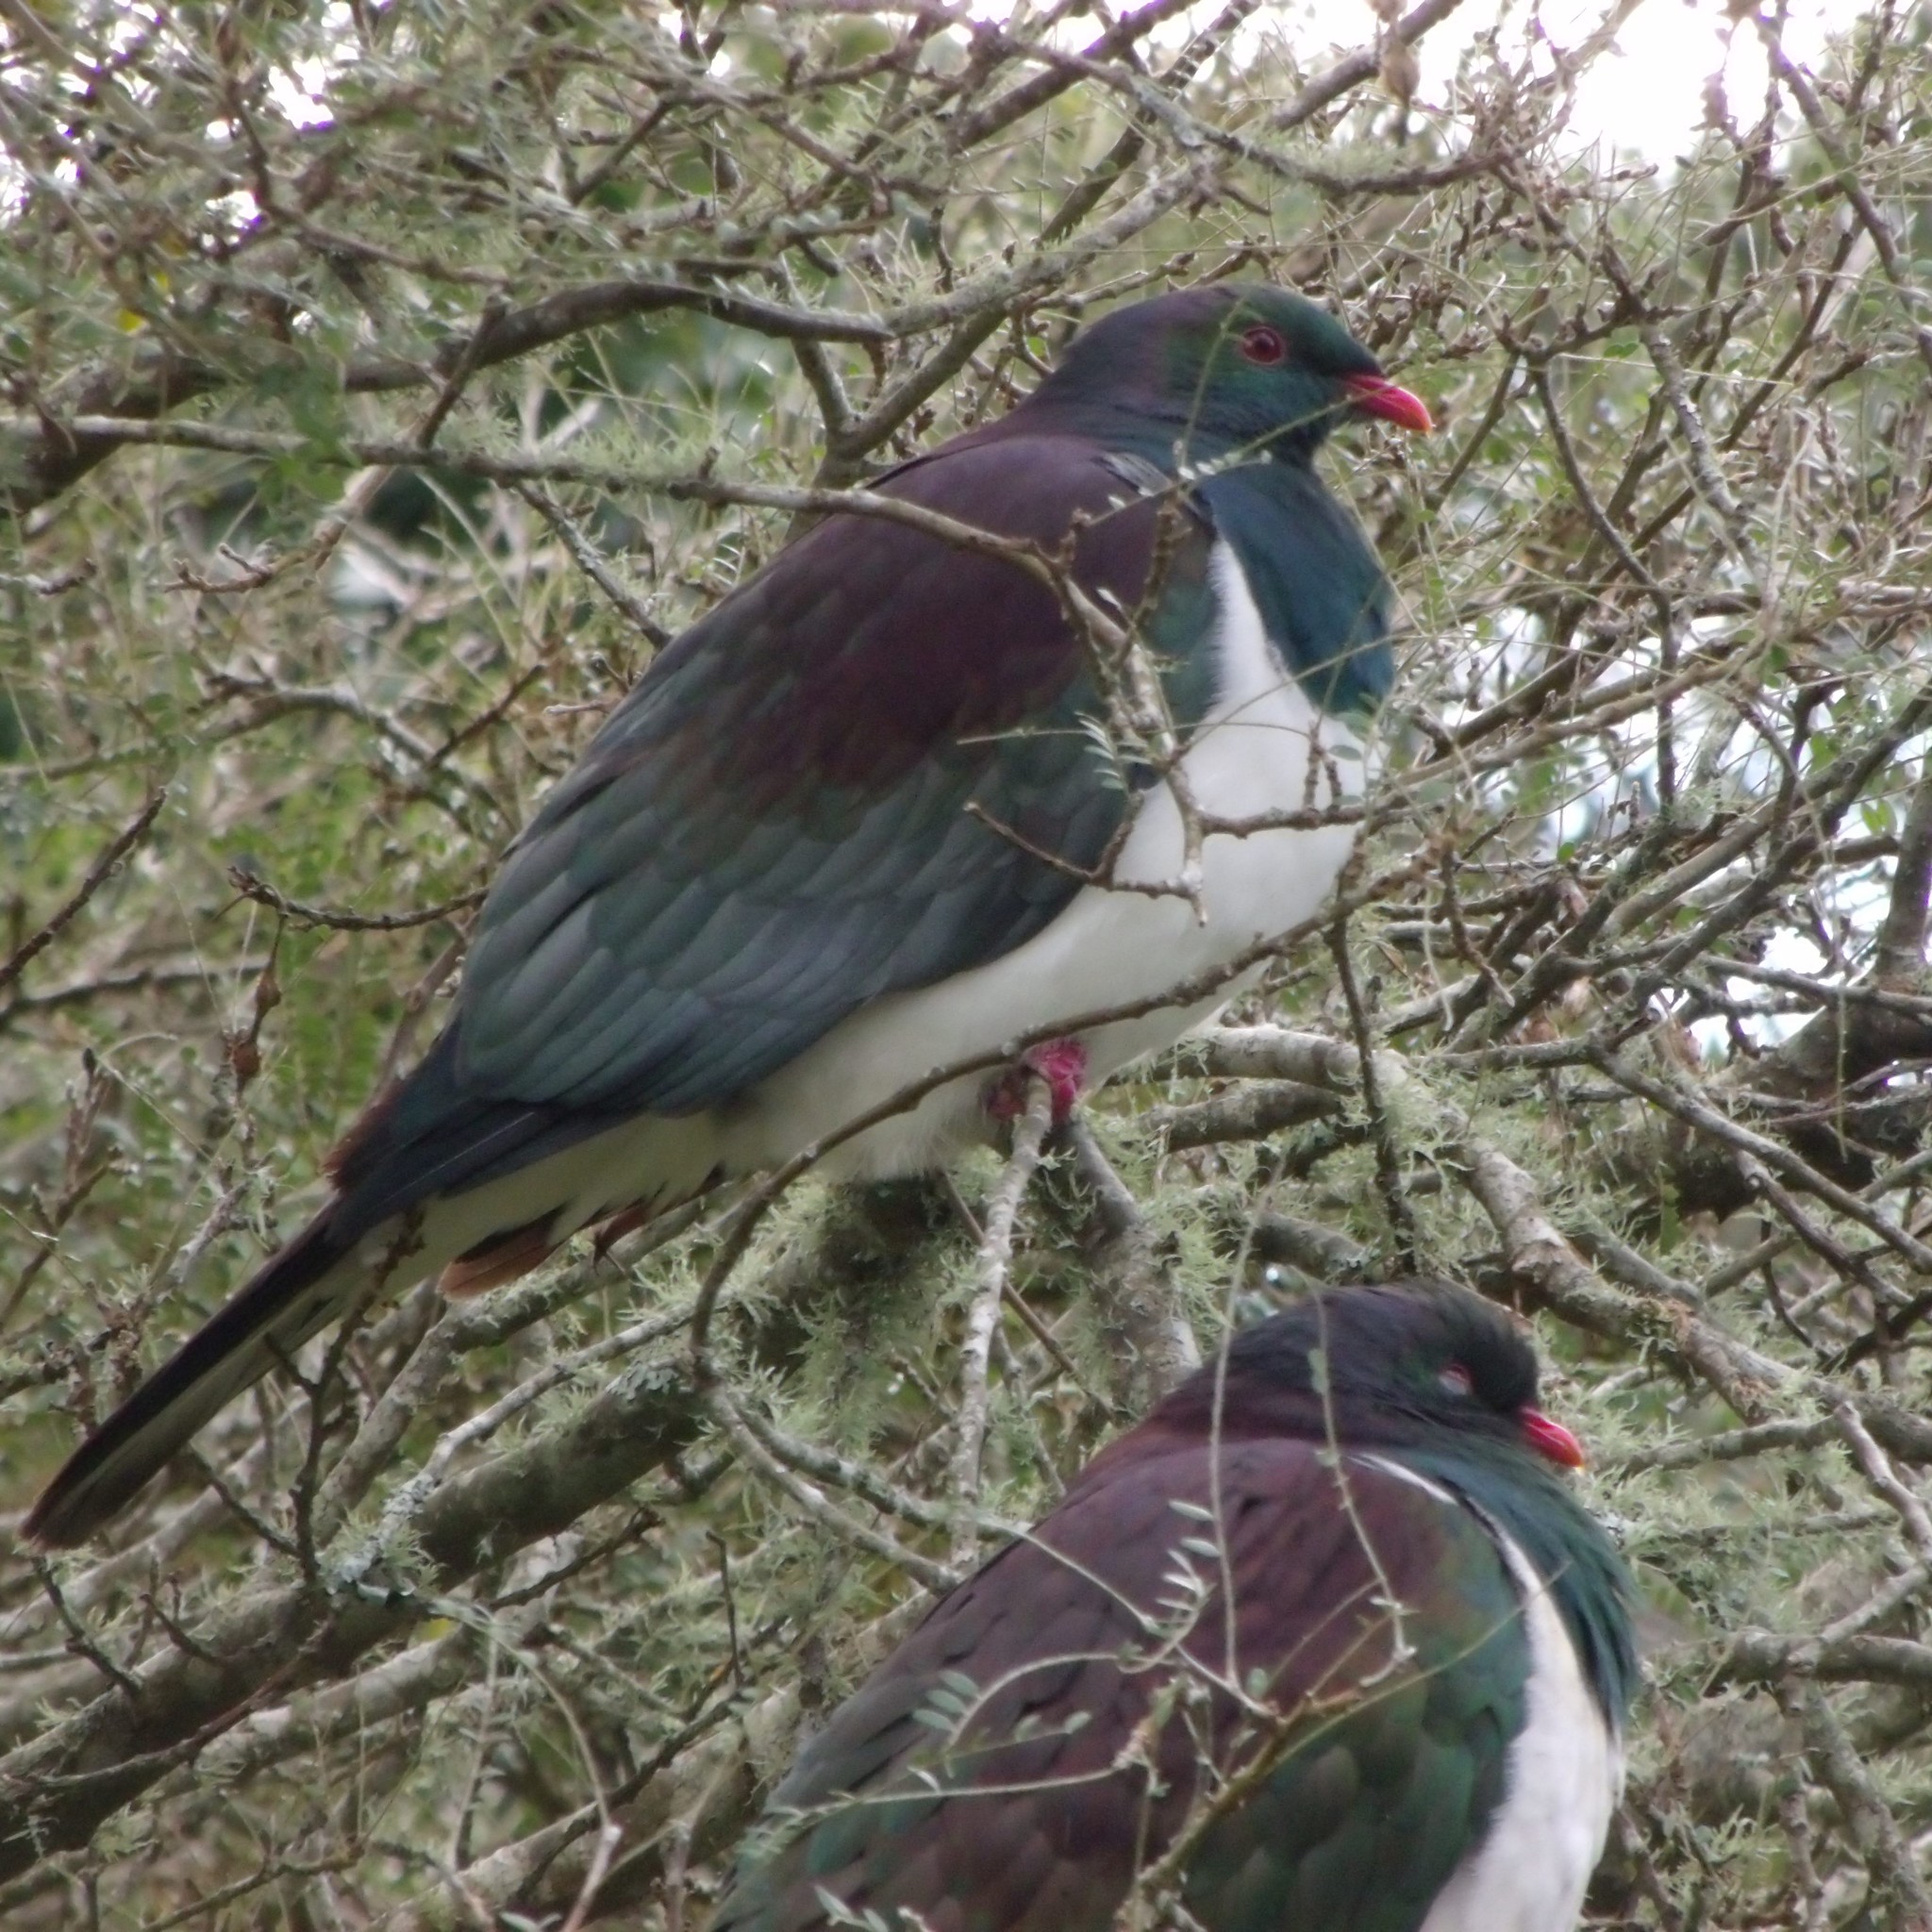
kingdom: Animalia
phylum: Chordata
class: Aves
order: Columbiformes
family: Columbidae
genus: Hemiphaga
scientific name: Hemiphaga novaeseelandiae
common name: New zealand pigeon
